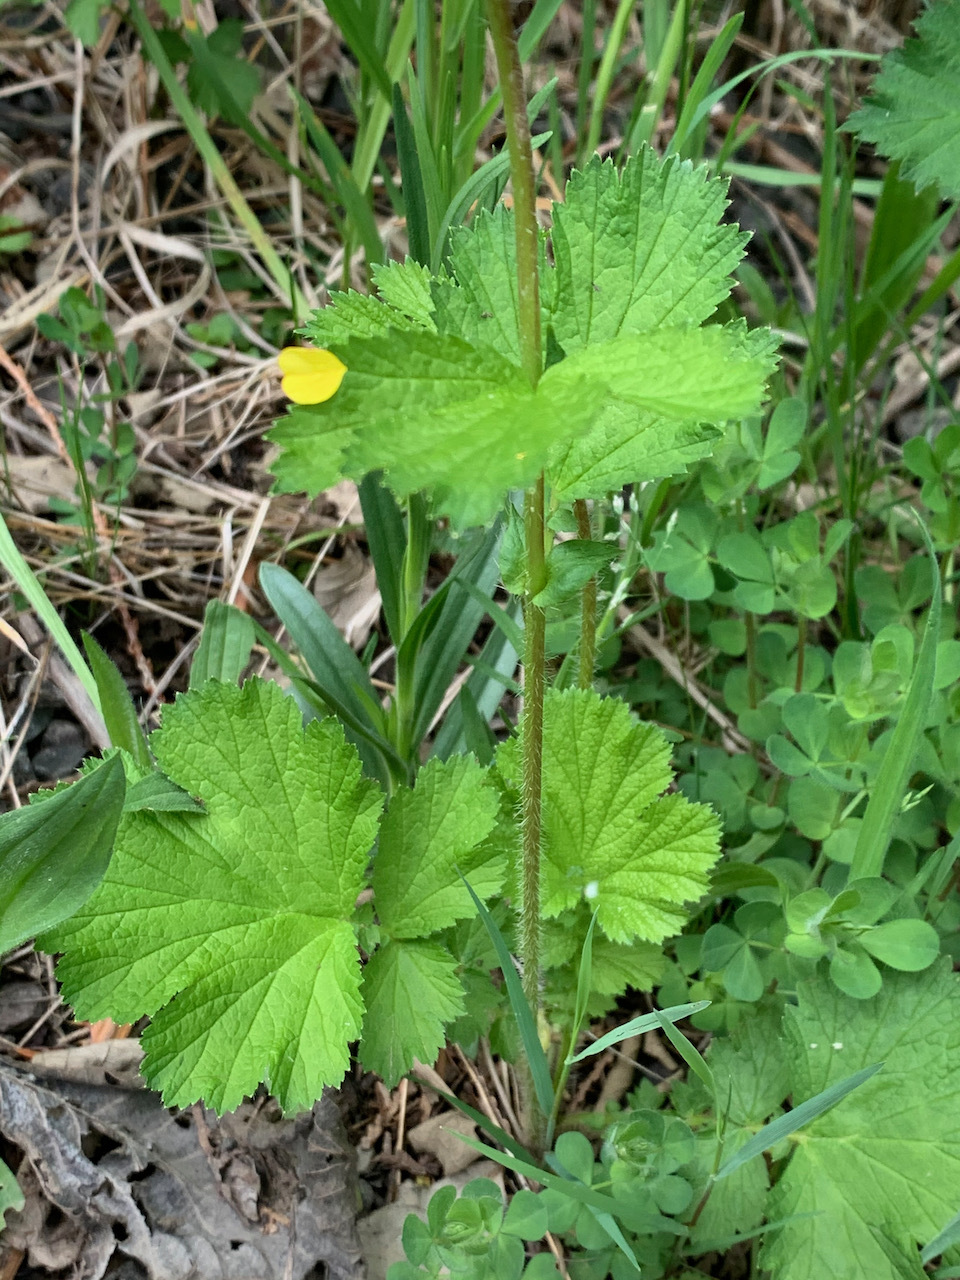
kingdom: Plantae
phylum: Tracheophyta
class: Magnoliopsida
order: Rosales
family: Rosaceae
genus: Geum
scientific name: Geum macrophyllum
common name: Large-leaved avens
